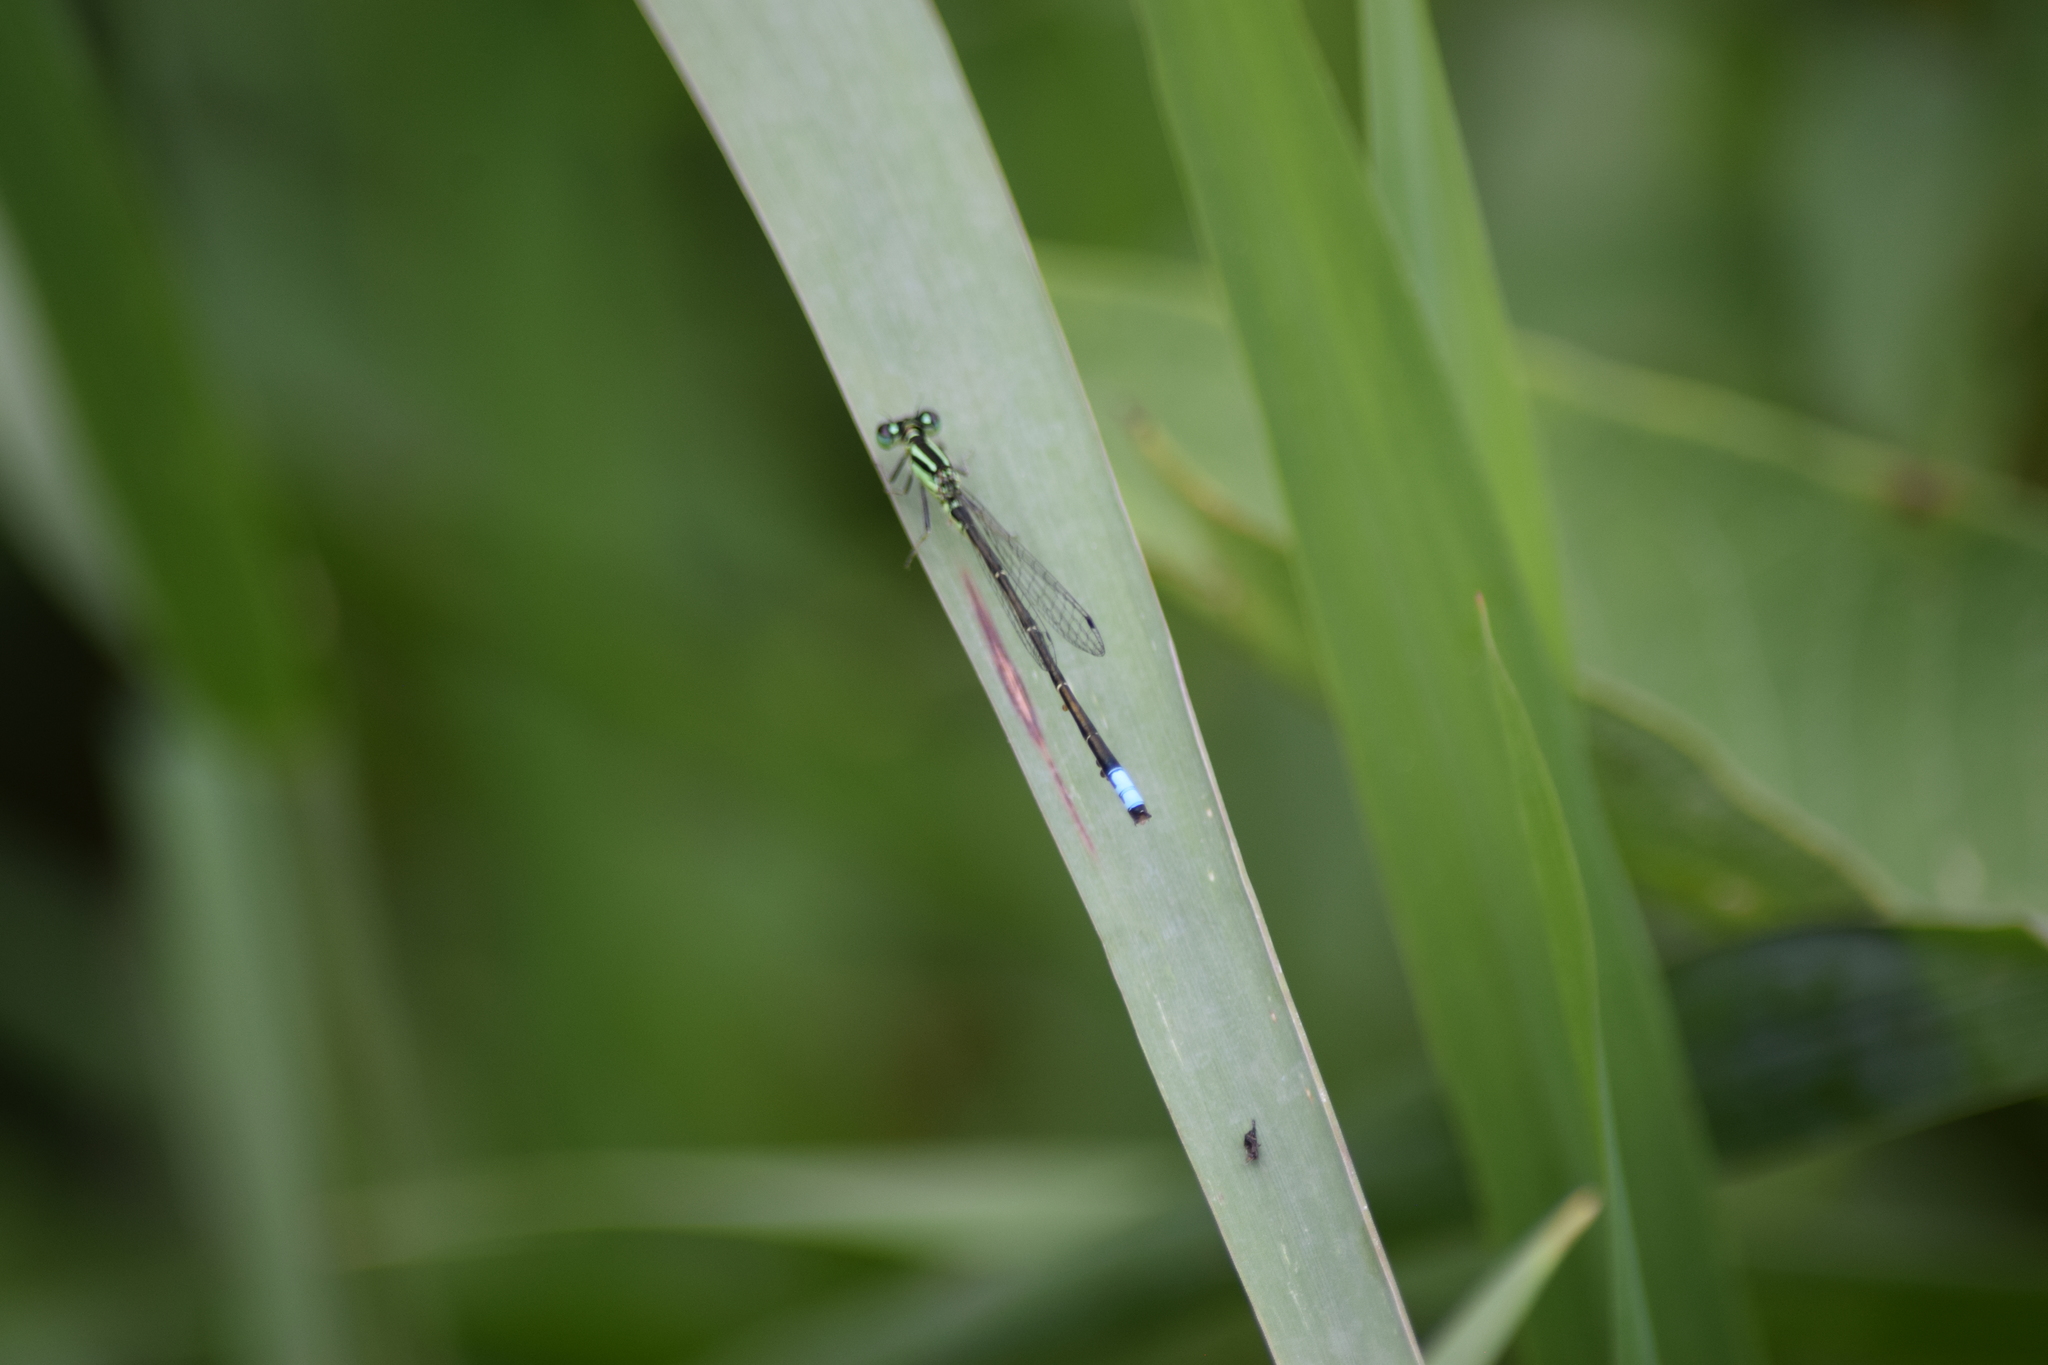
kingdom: Animalia
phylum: Arthropoda
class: Insecta
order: Odonata
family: Coenagrionidae
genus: Ischnura
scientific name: Ischnura verticalis
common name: Eastern forktail
